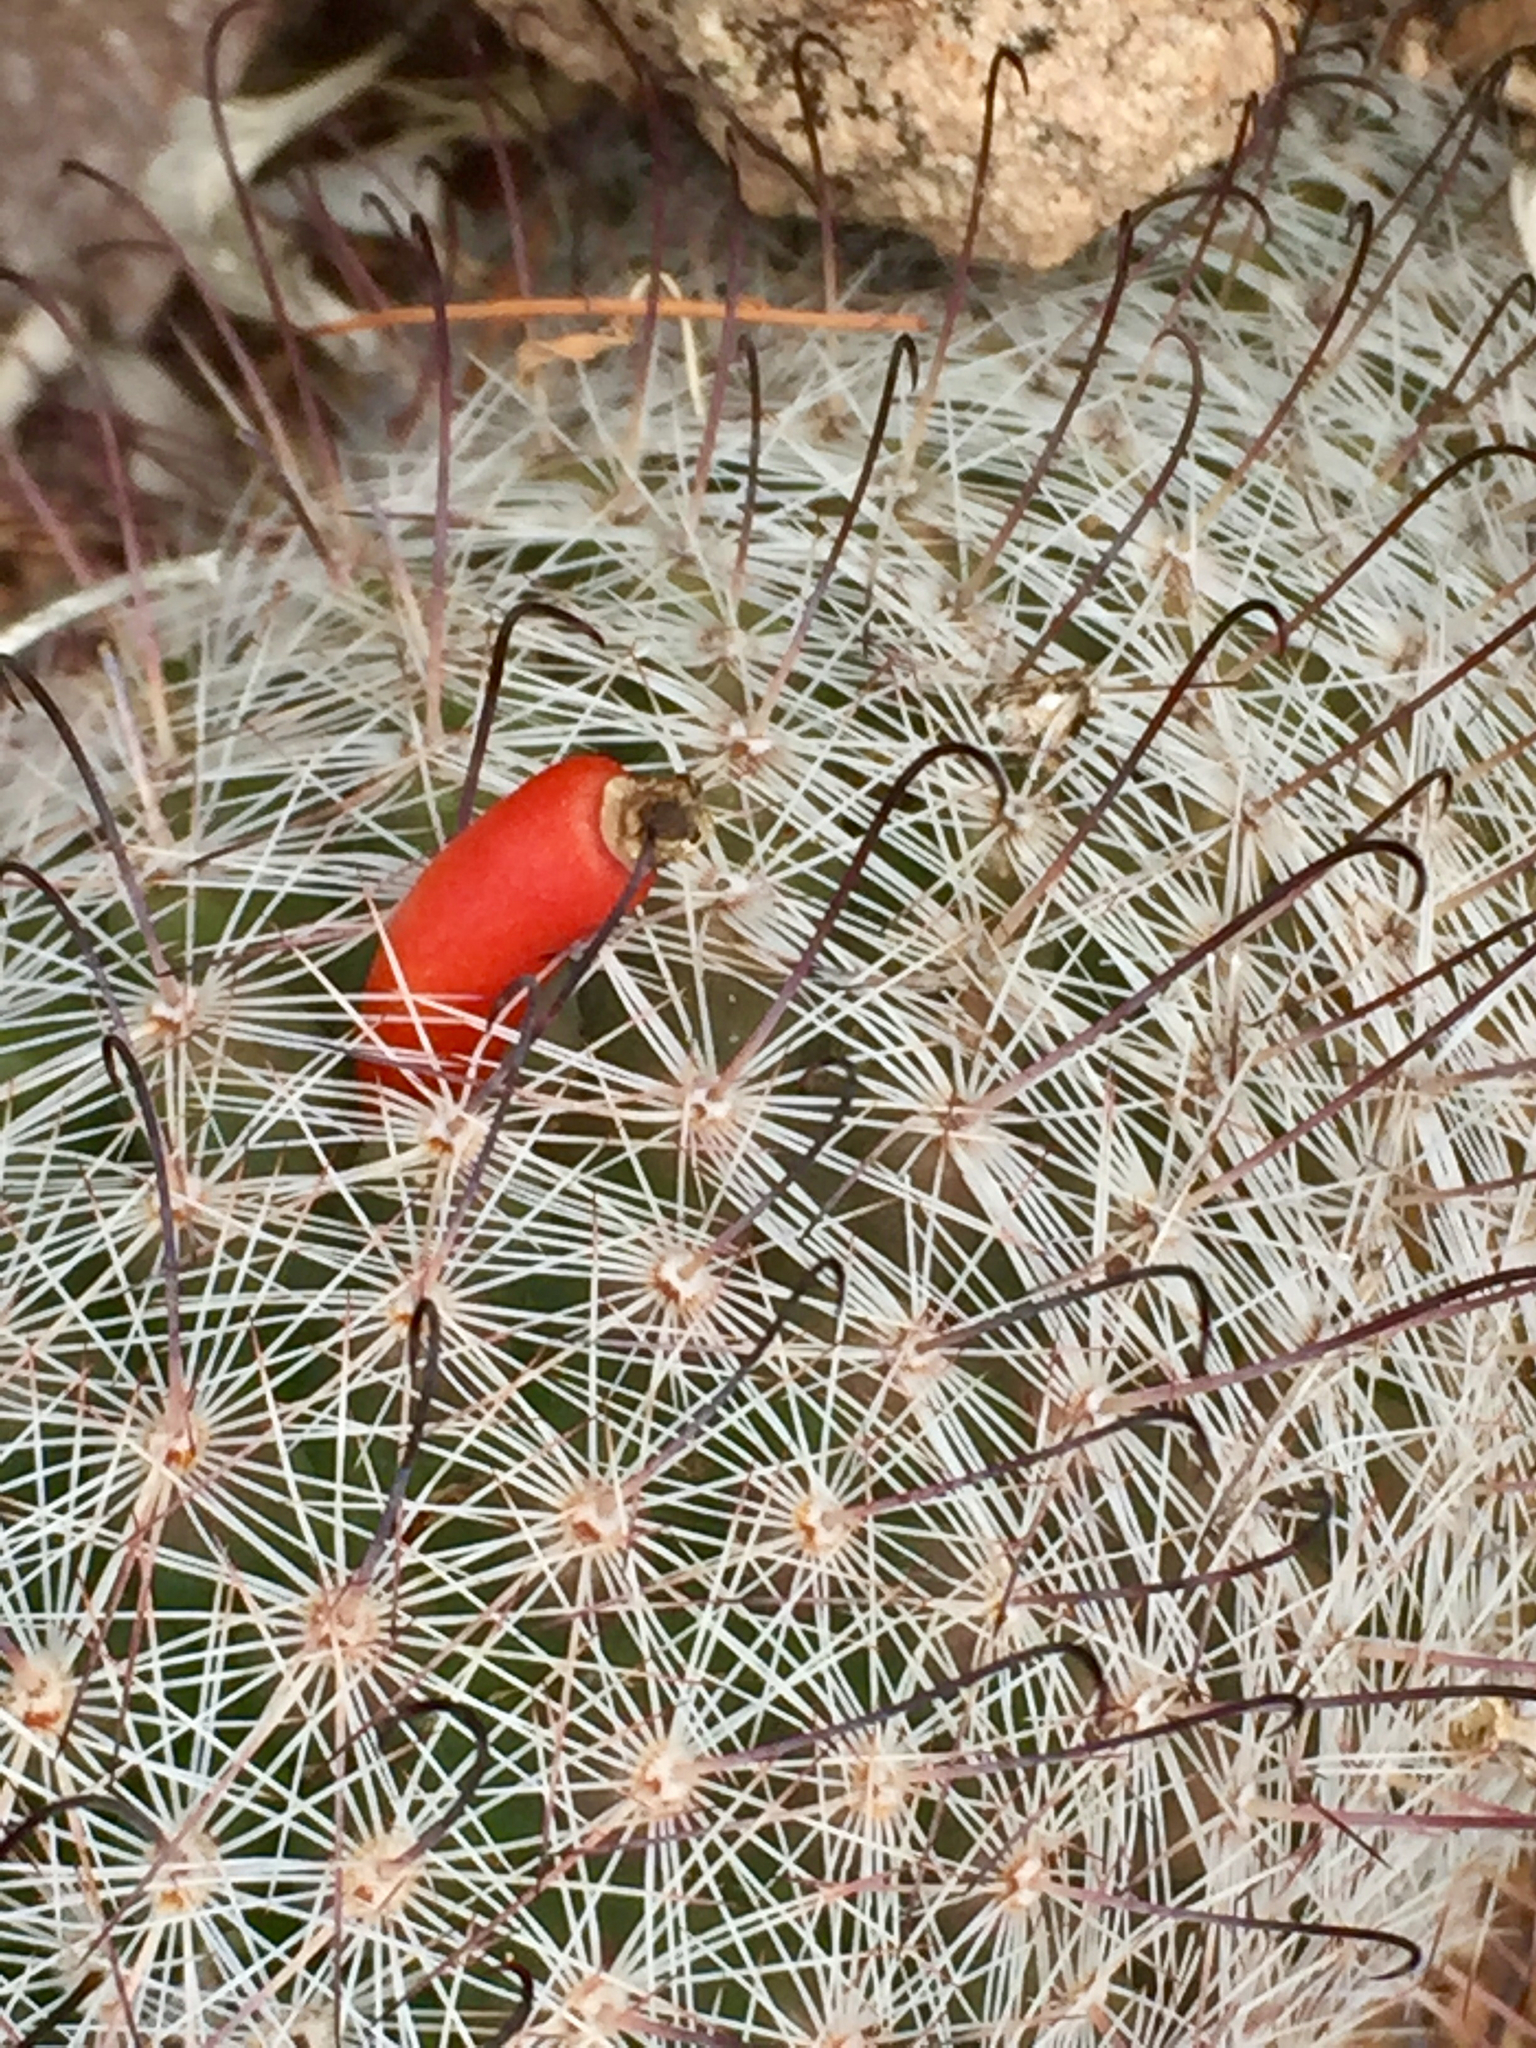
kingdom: Plantae
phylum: Tracheophyta
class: Magnoliopsida
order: Caryophyllales
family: Cactaceae
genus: Cochemiea
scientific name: Cochemiea grahamii
